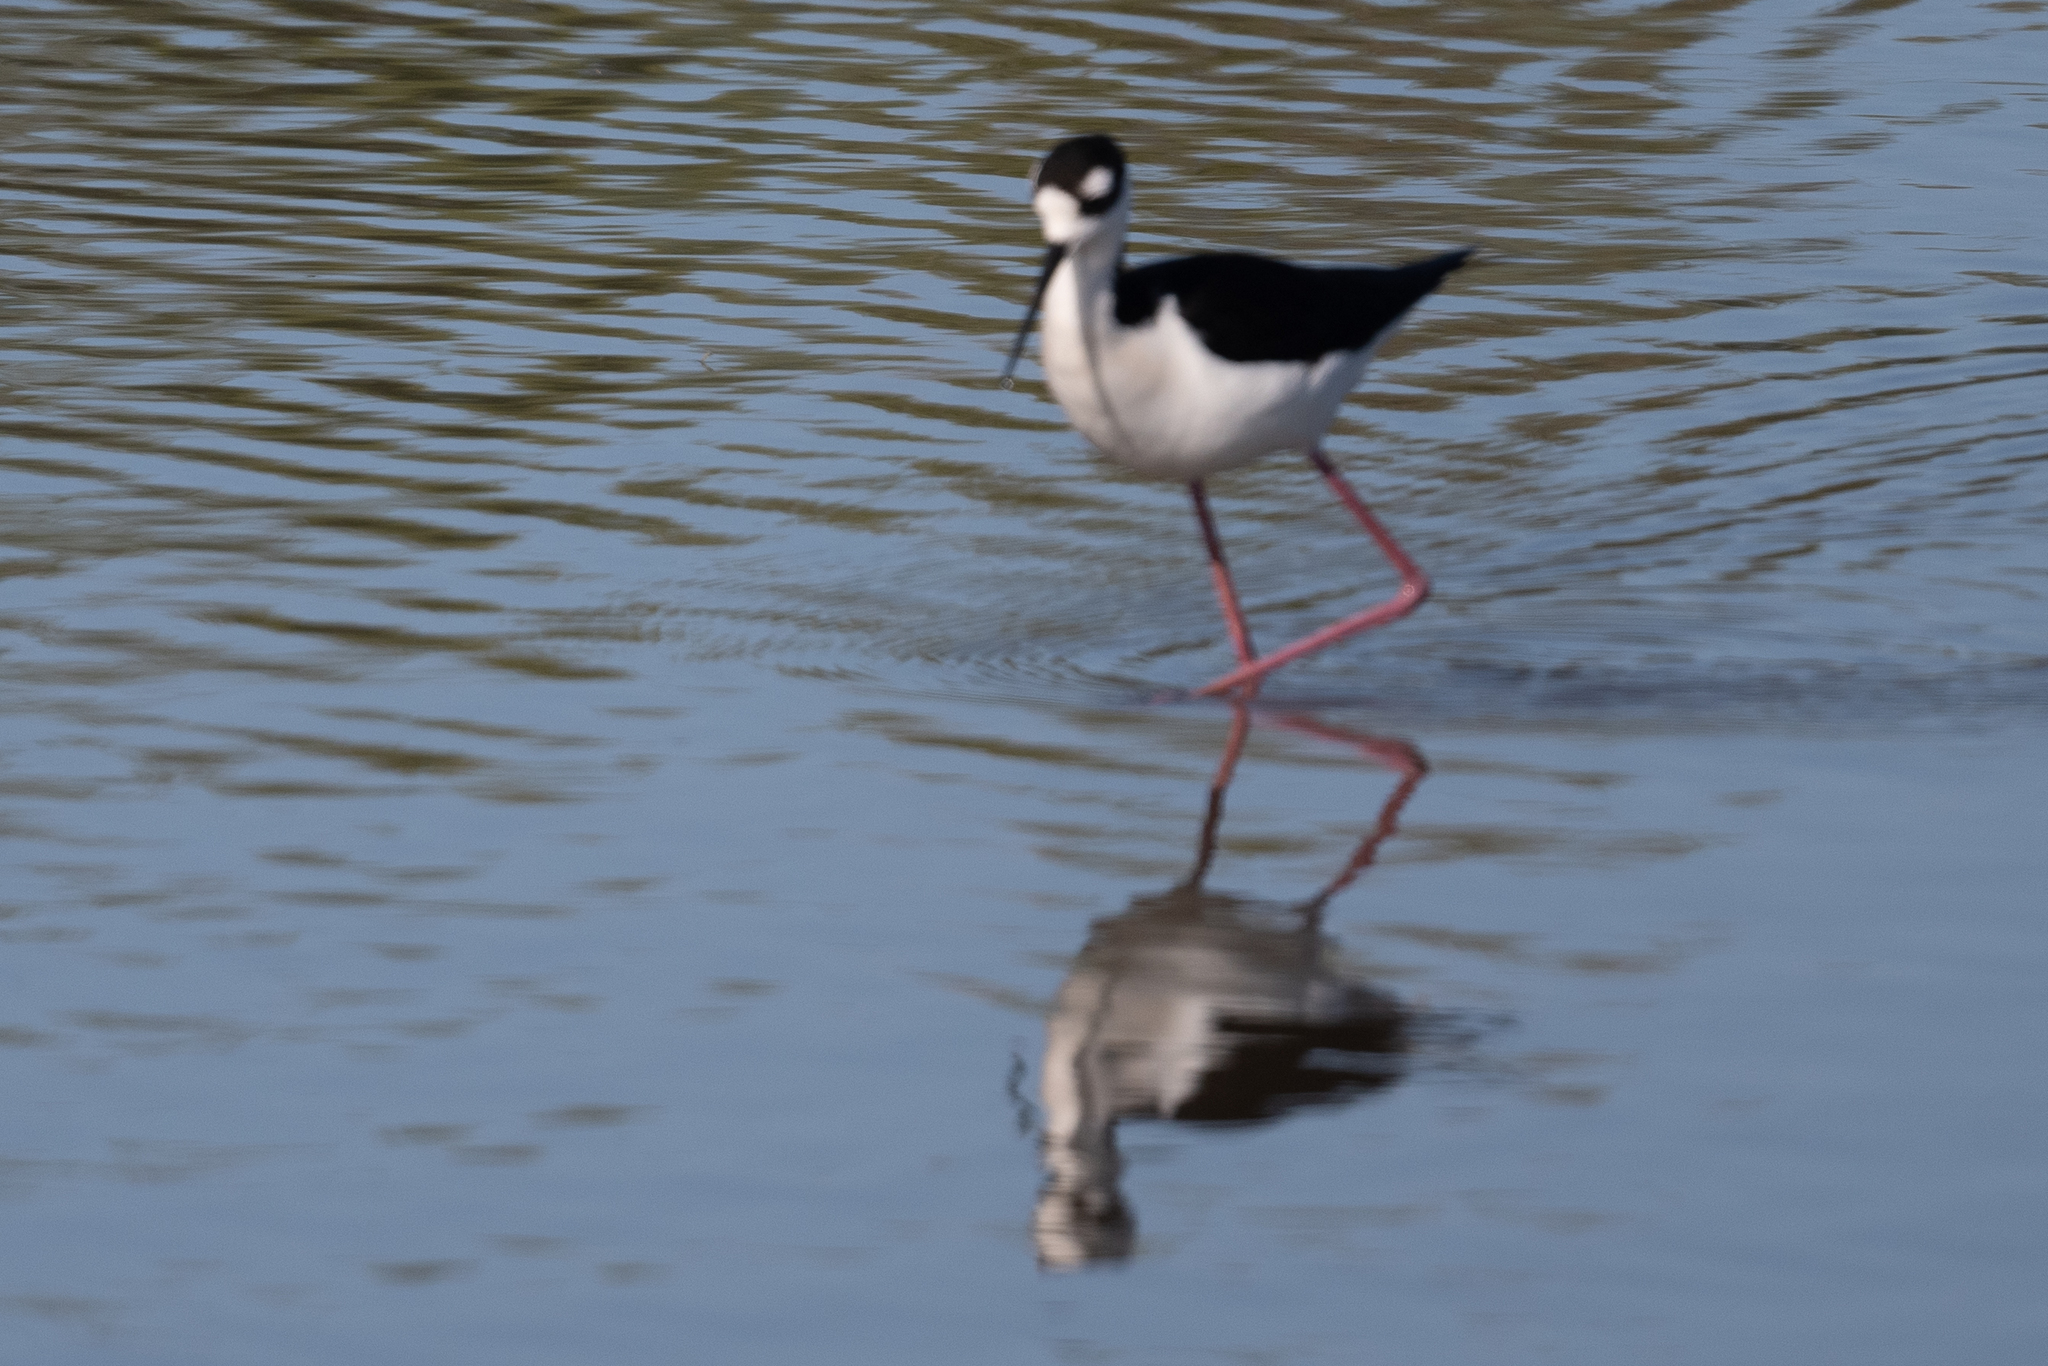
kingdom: Animalia
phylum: Chordata
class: Aves
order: Charadriiformes
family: Recurvirostridae
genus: Himantopus
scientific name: Himantopus mexicanus
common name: Black-necked stilt
